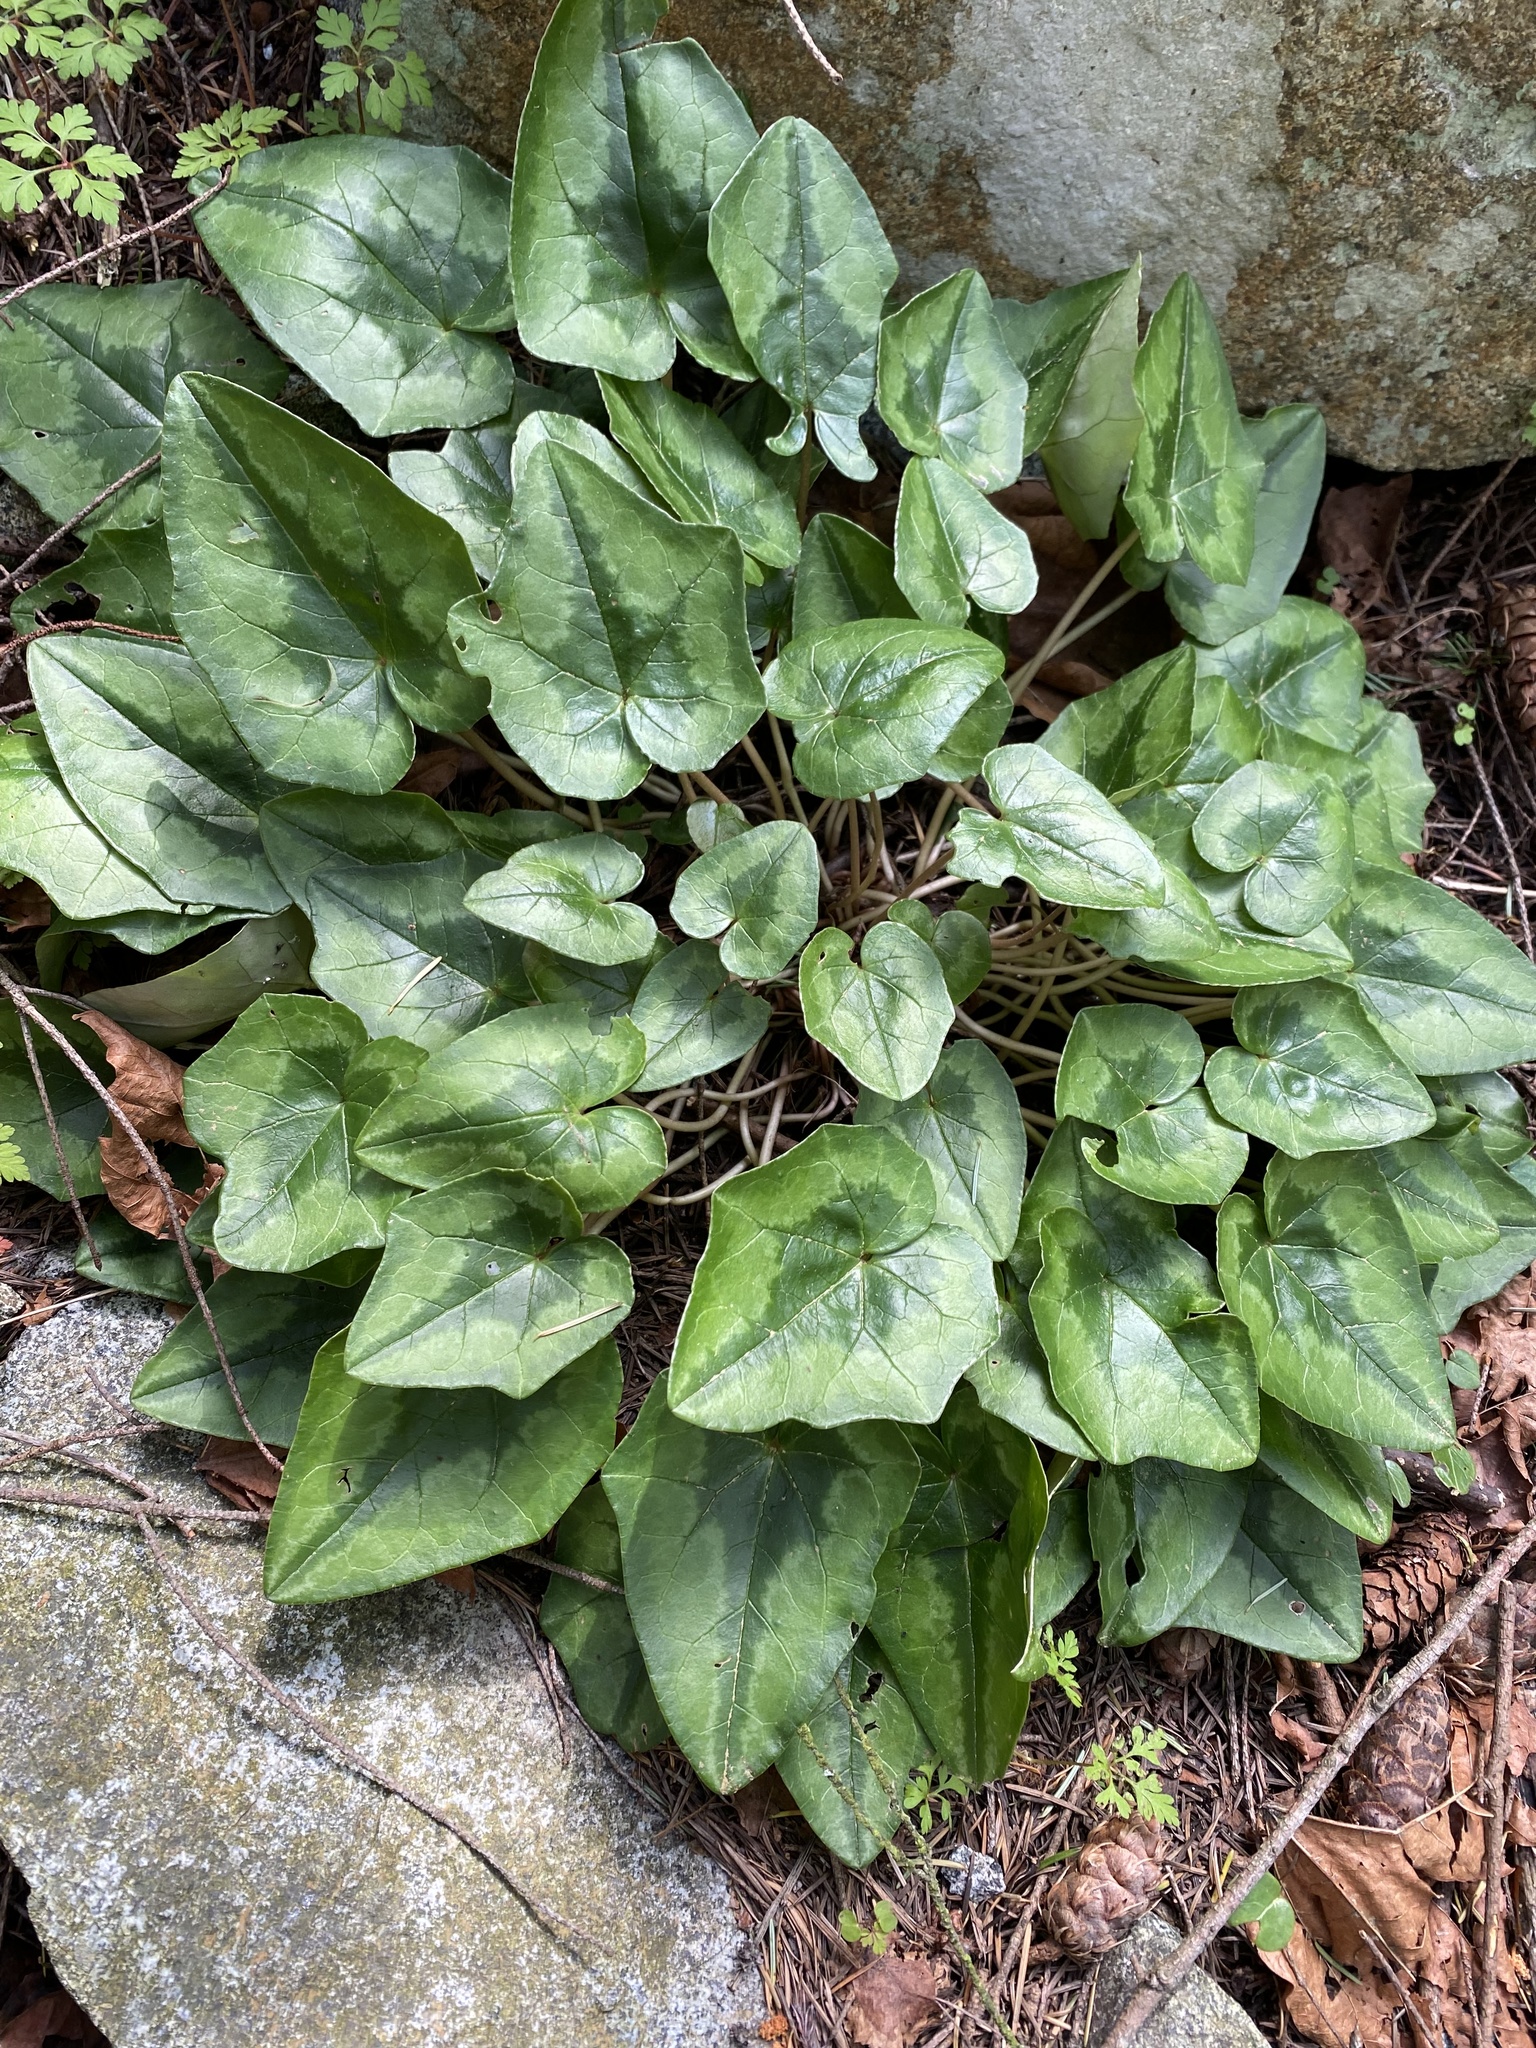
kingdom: Plantae
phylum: Tracheophyta
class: Magnoliopsida
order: Ericales
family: Primulaceae
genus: Cyclamen
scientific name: Cyclamen hederifolium
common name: Sowbread
